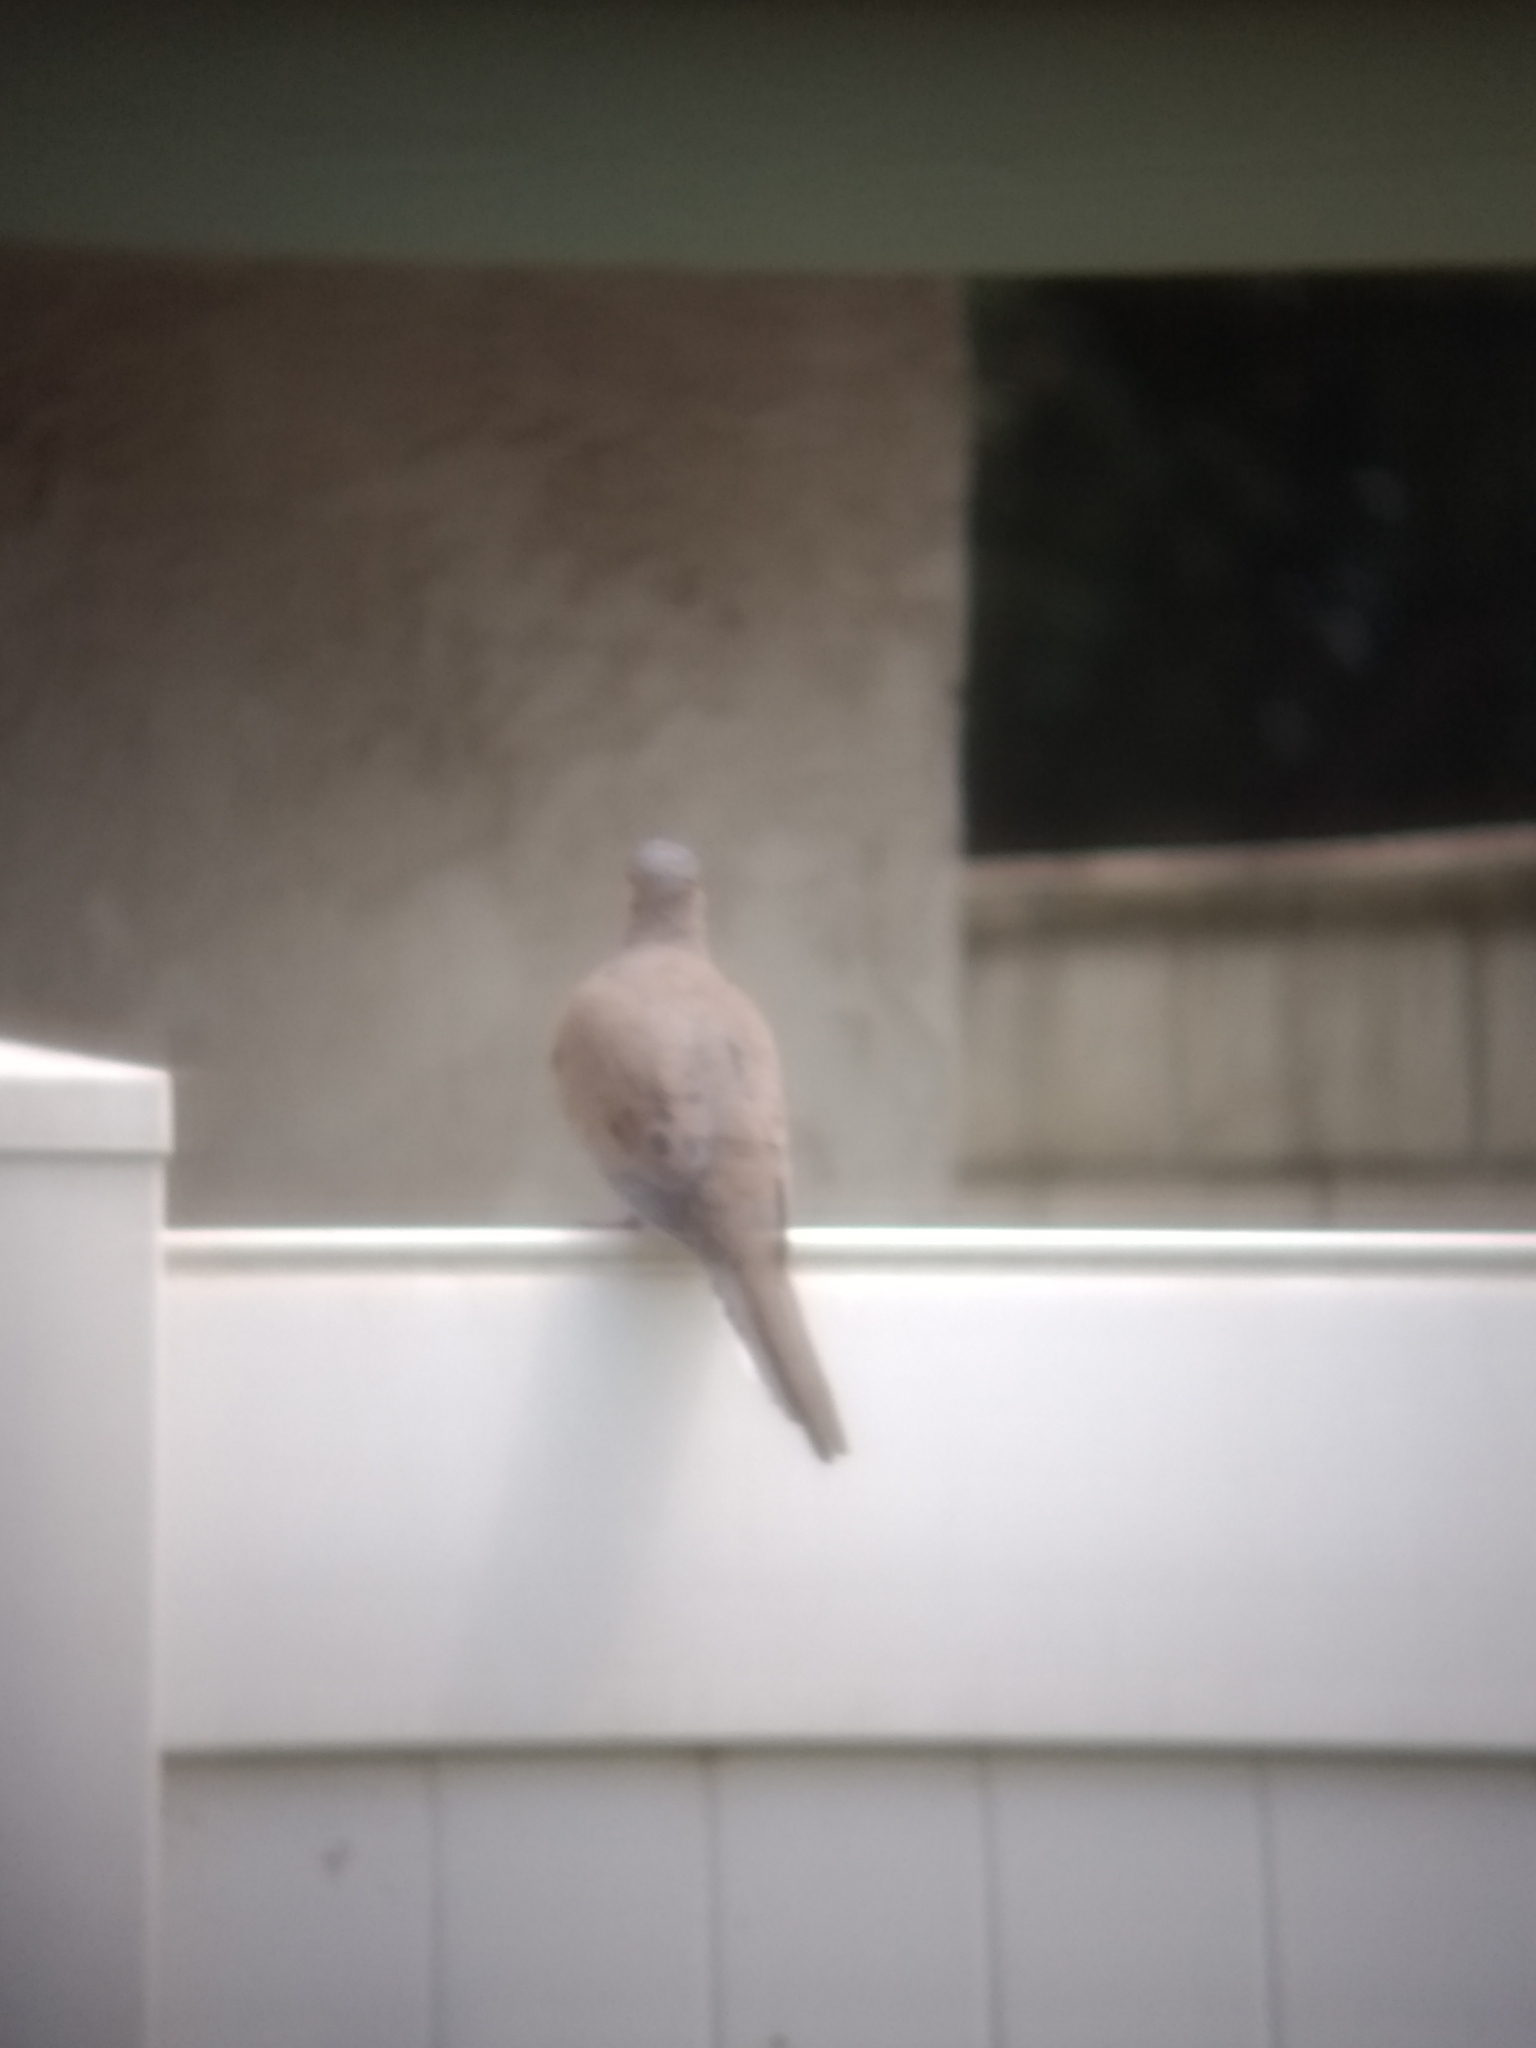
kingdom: Animalia
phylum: Chordata
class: Aves
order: Columbiformes
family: Columbidae
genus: Zenaida
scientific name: Zenaida macroura
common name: Mourning dove
